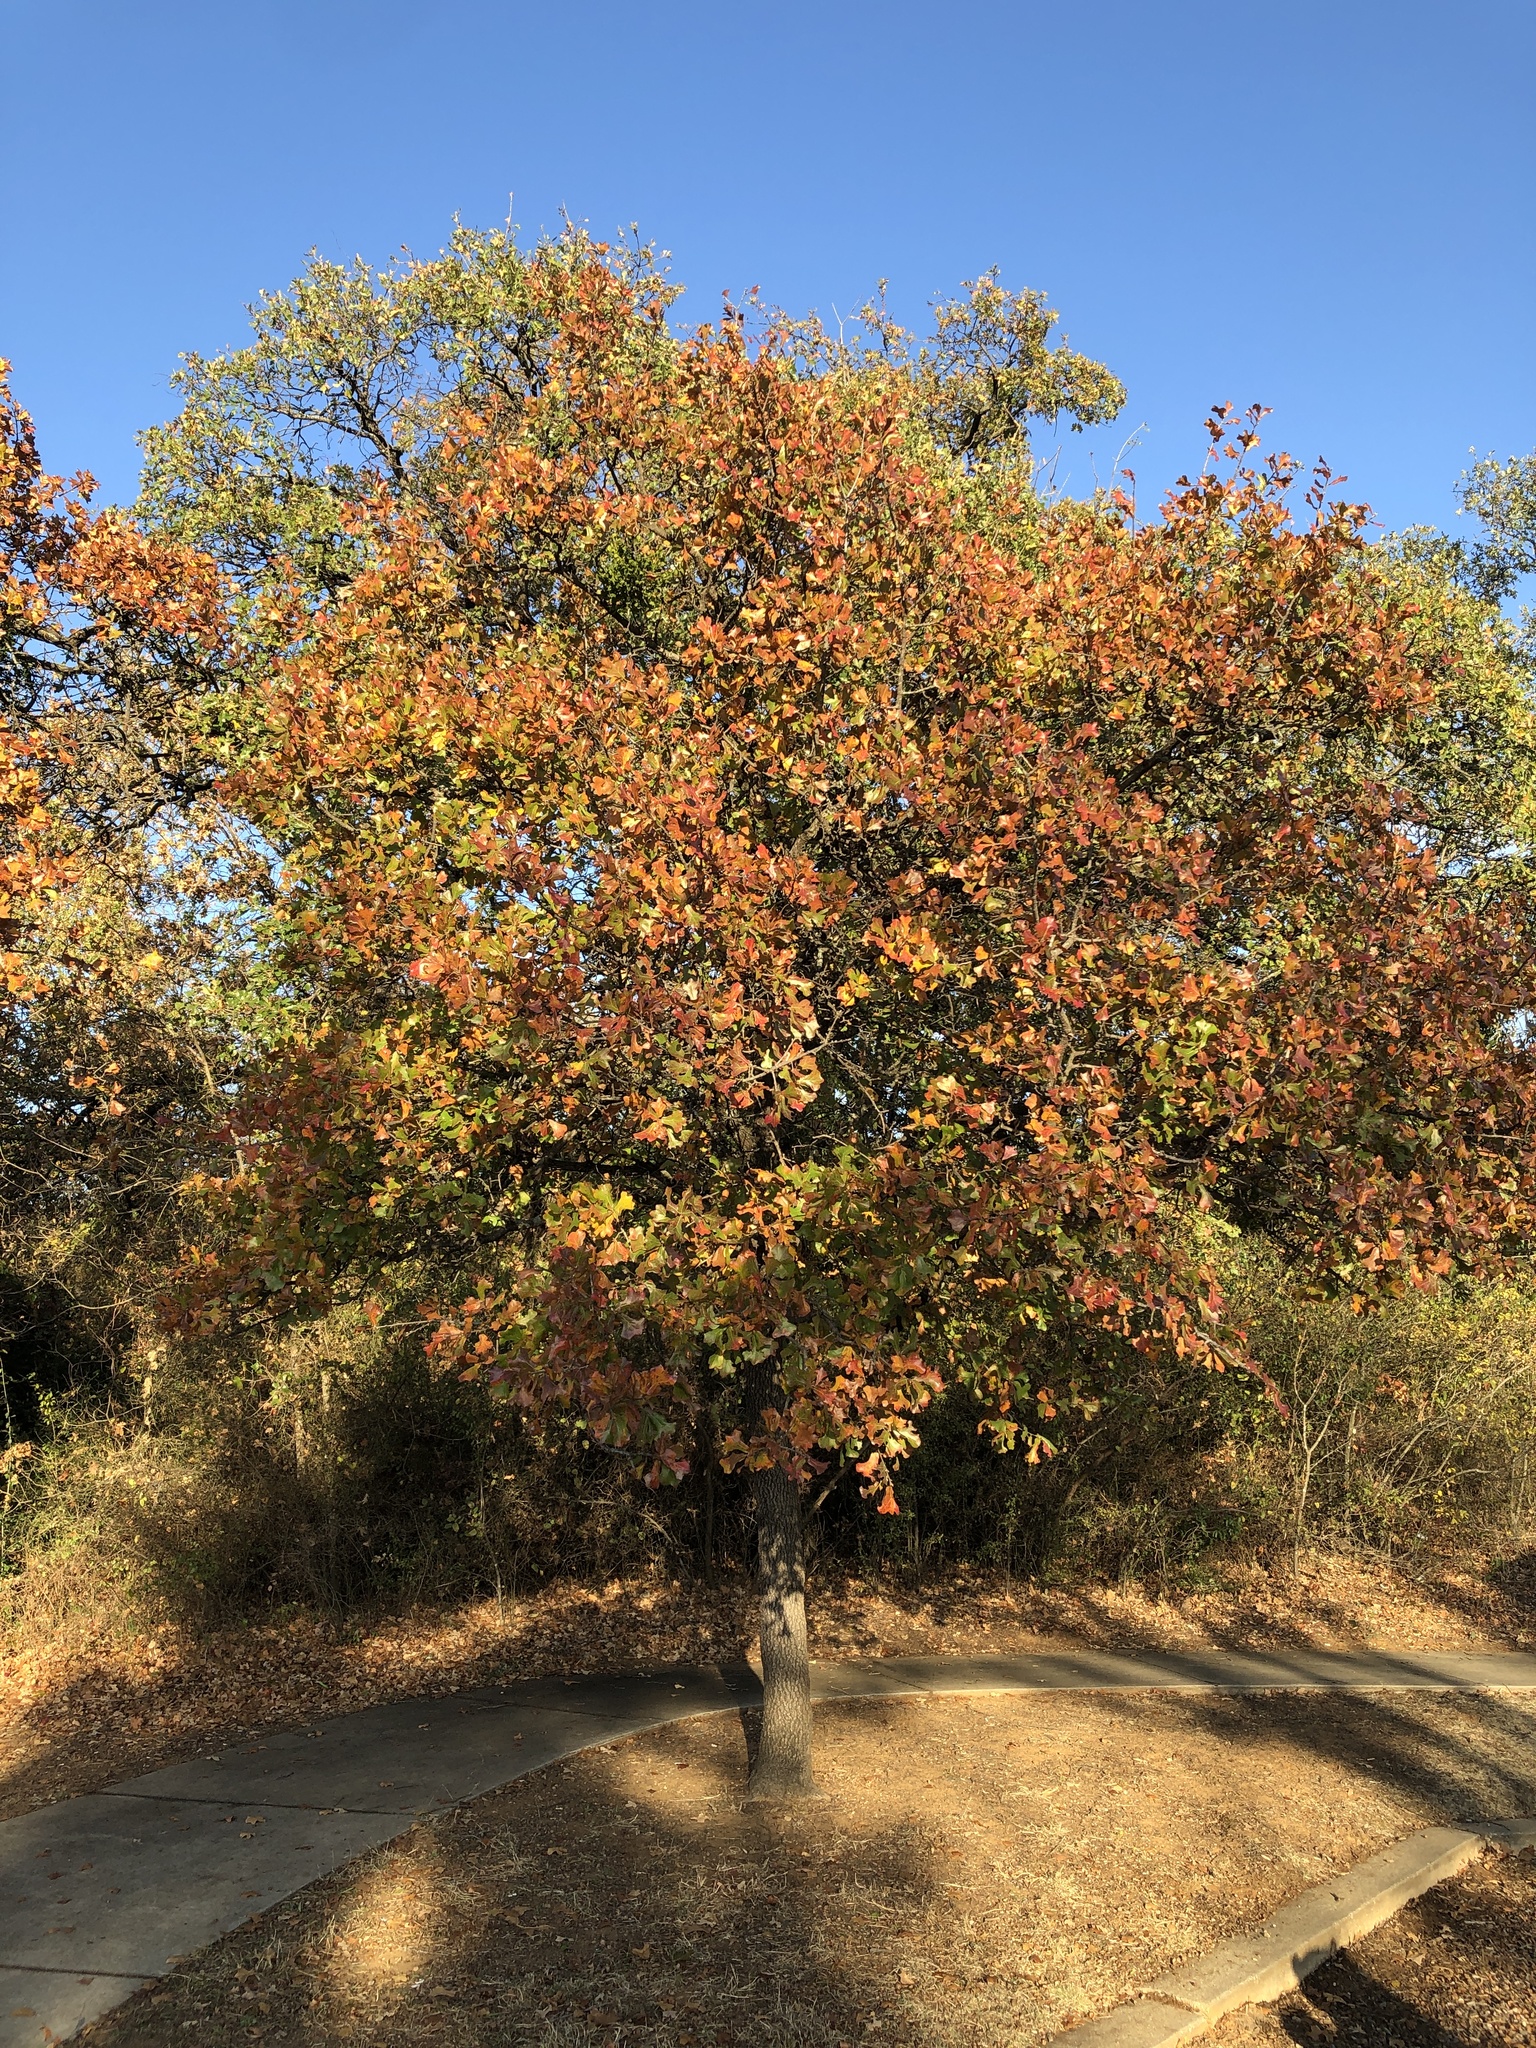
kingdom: Plantae
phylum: Tracheophyta
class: Magnoliopsida
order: Fagales
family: Fagaceae
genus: Quercus
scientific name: Quercus marilandica
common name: Blackjack oak
